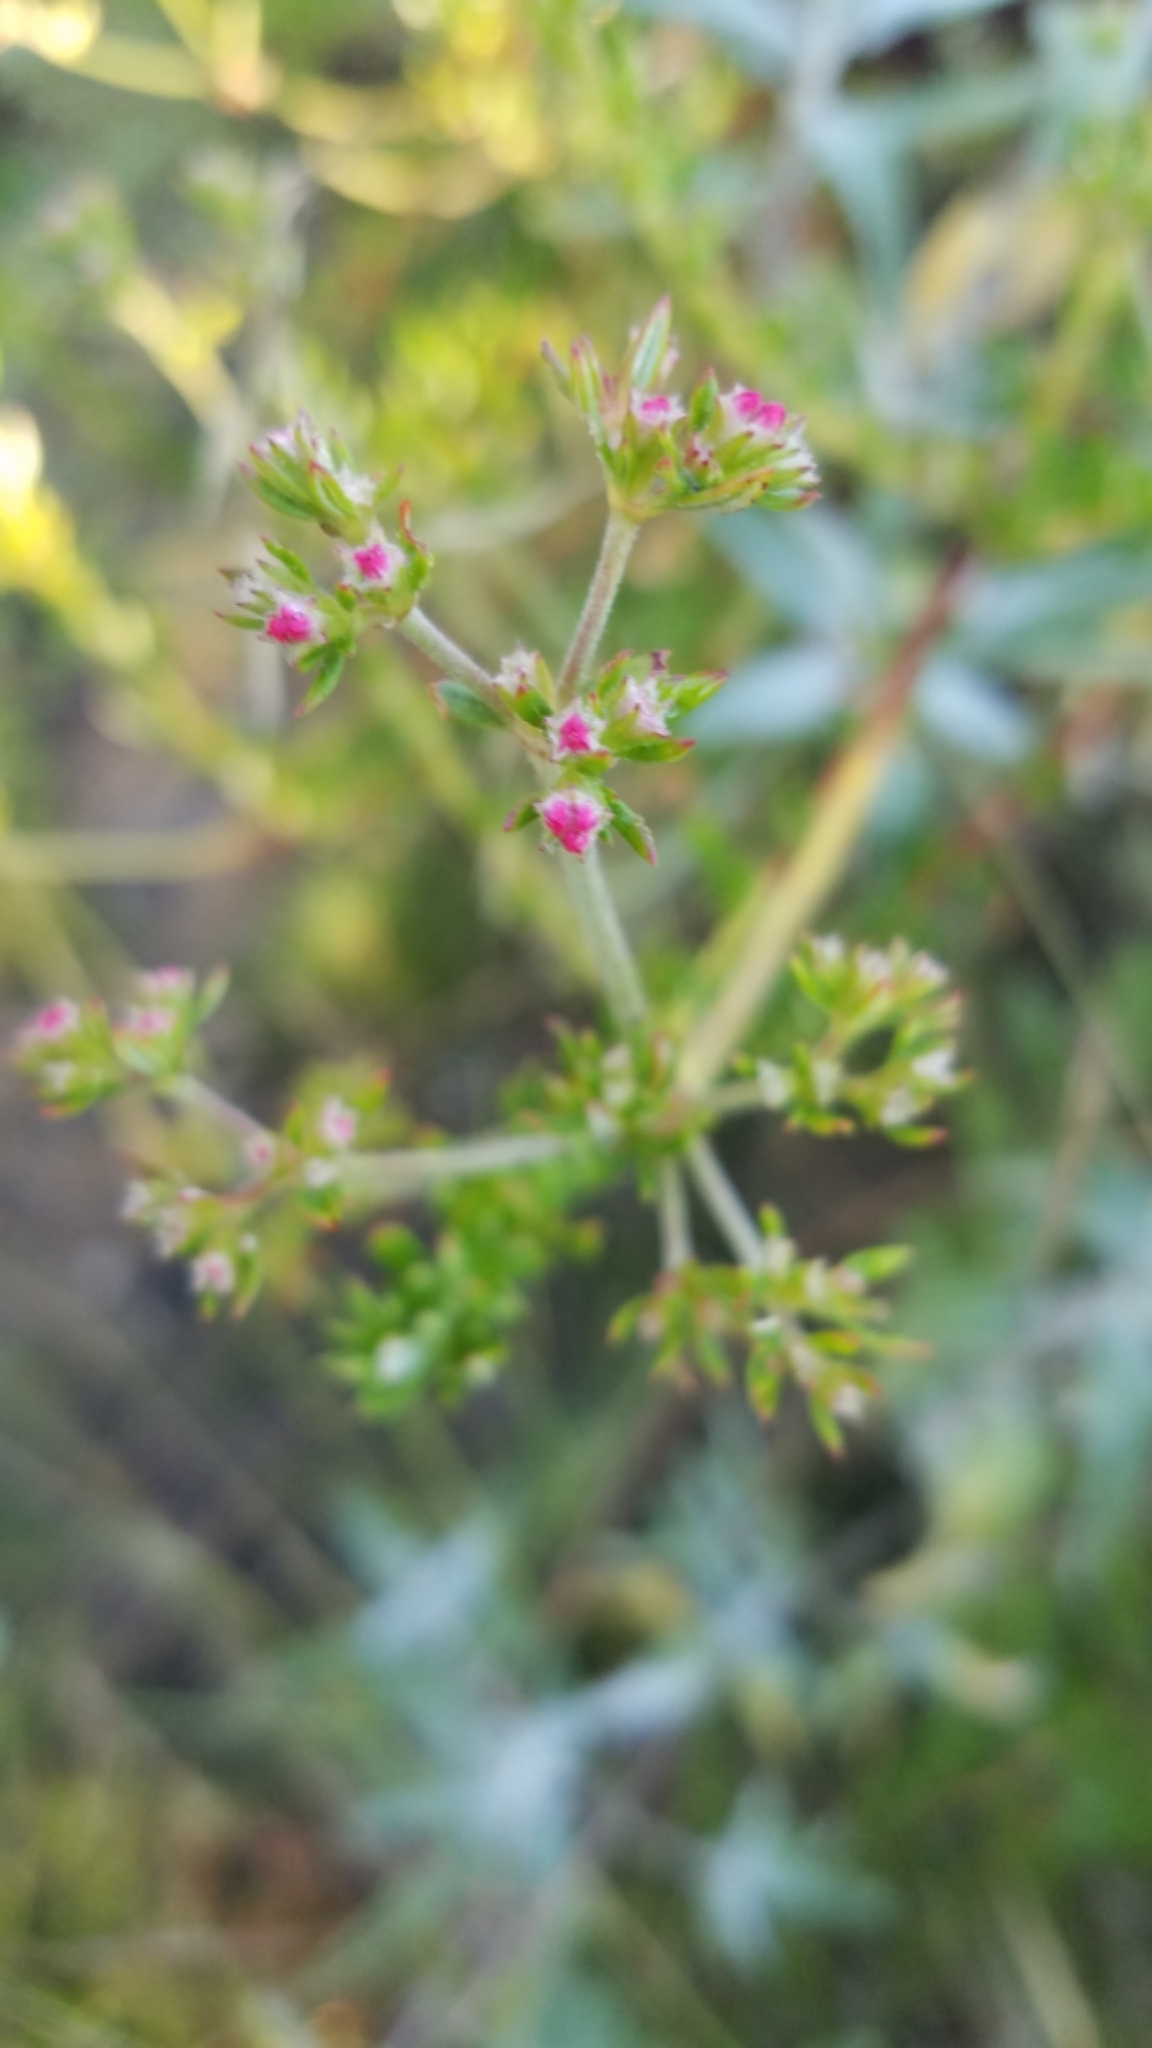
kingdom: Plantae
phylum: Tracheophyta
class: Magnoliopsida
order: Caryophyllales
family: Polygonaceae
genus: Eriogonum
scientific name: Eriogonum fasciculatum
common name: California wild buckwheat
